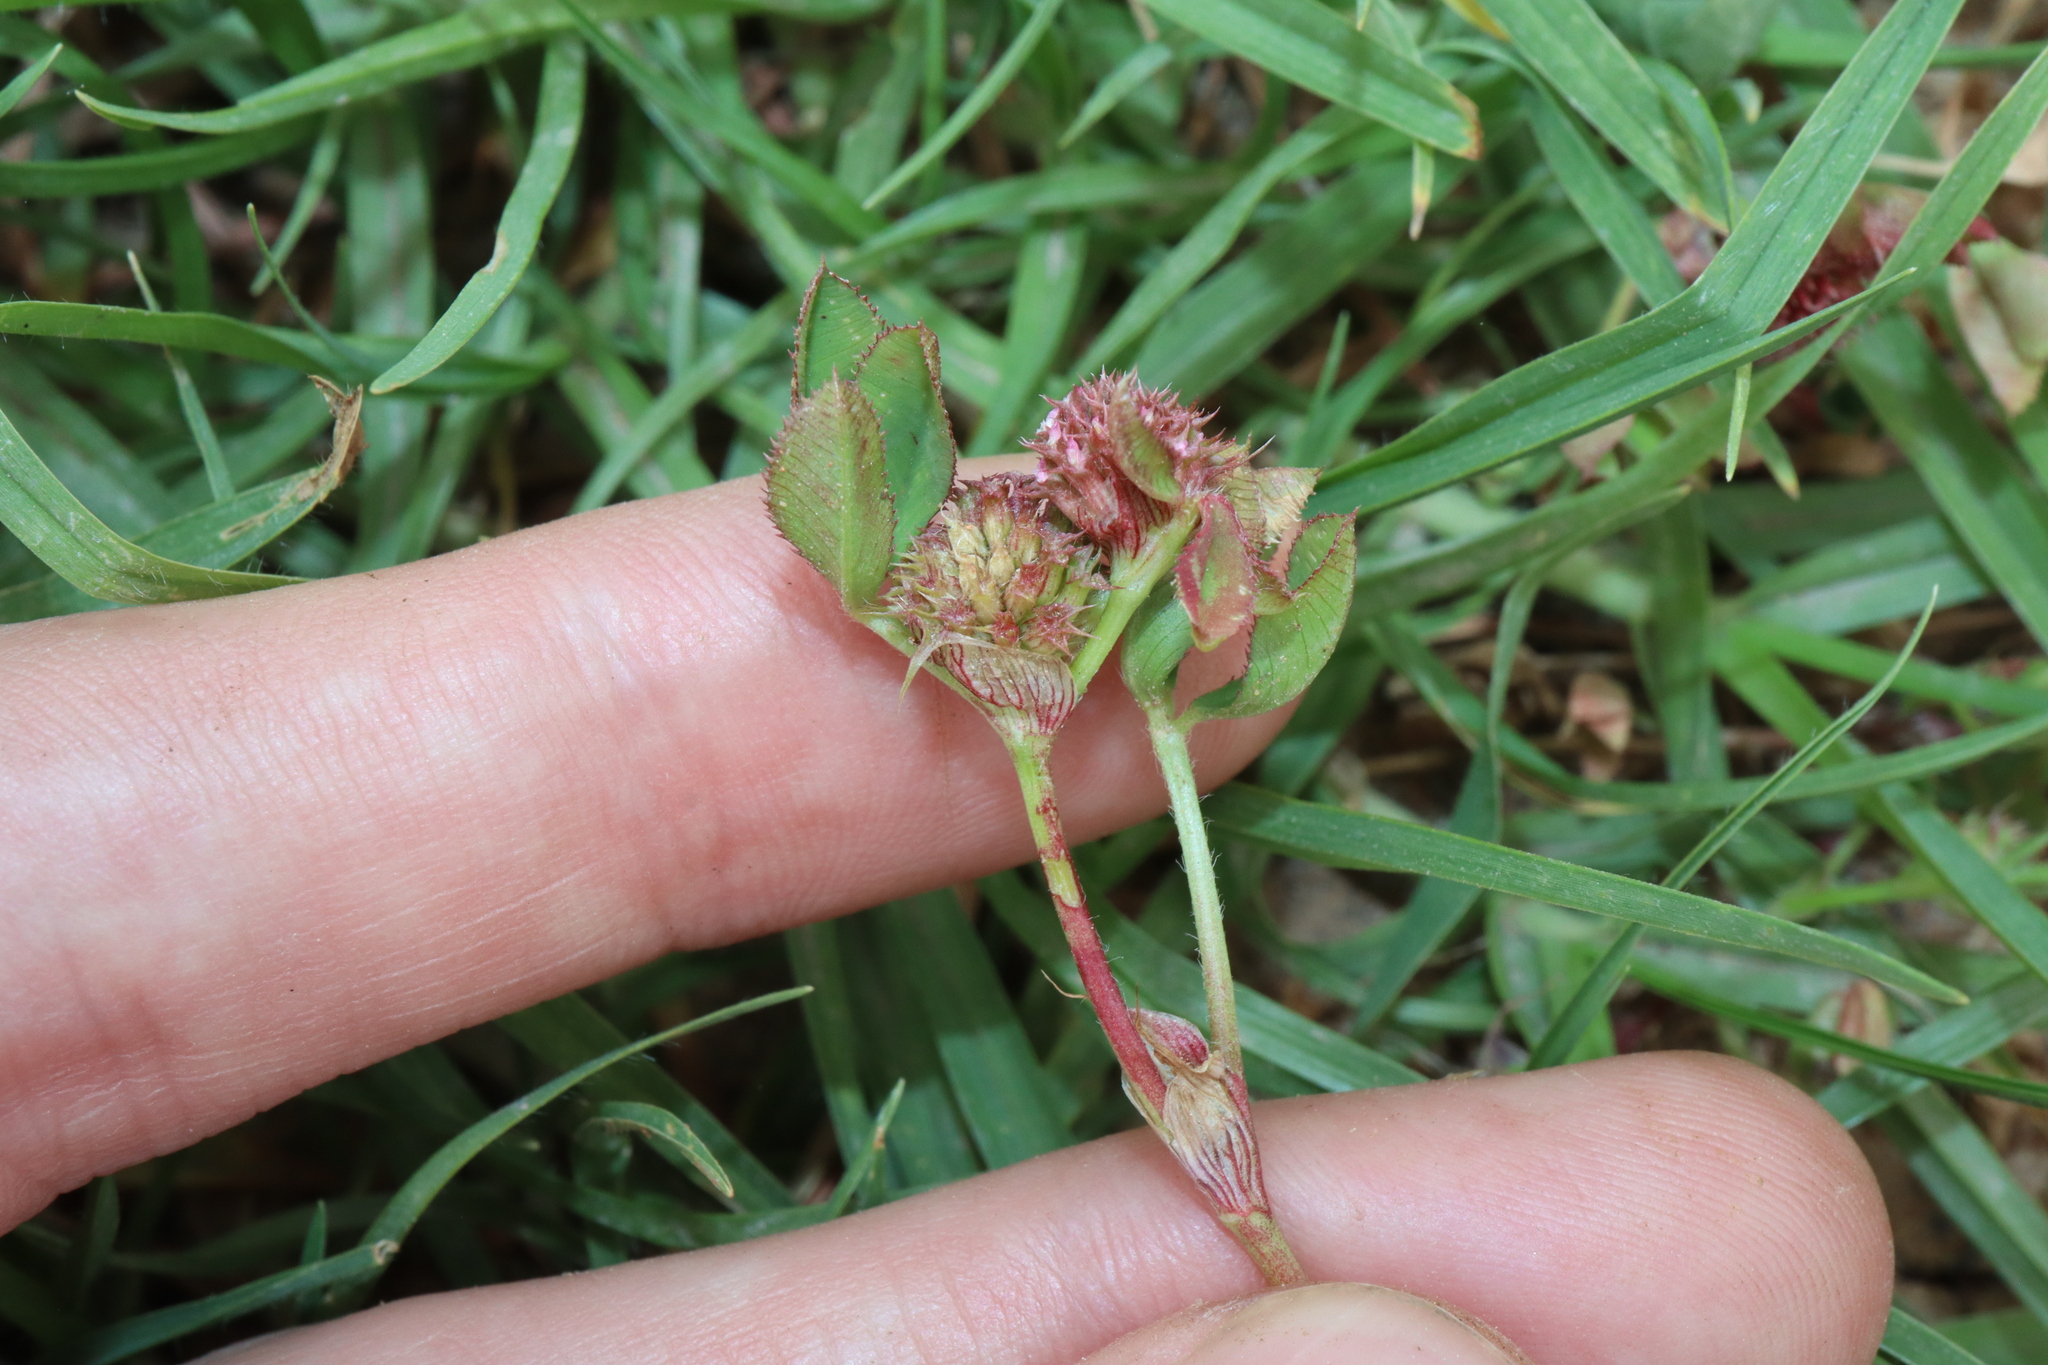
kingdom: Plantae
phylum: Tracheophyta
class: Magnoliopsida
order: Fabales
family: Fabaceae
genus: Trifolium
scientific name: Trifolium glomeratum
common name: Clustered clover
